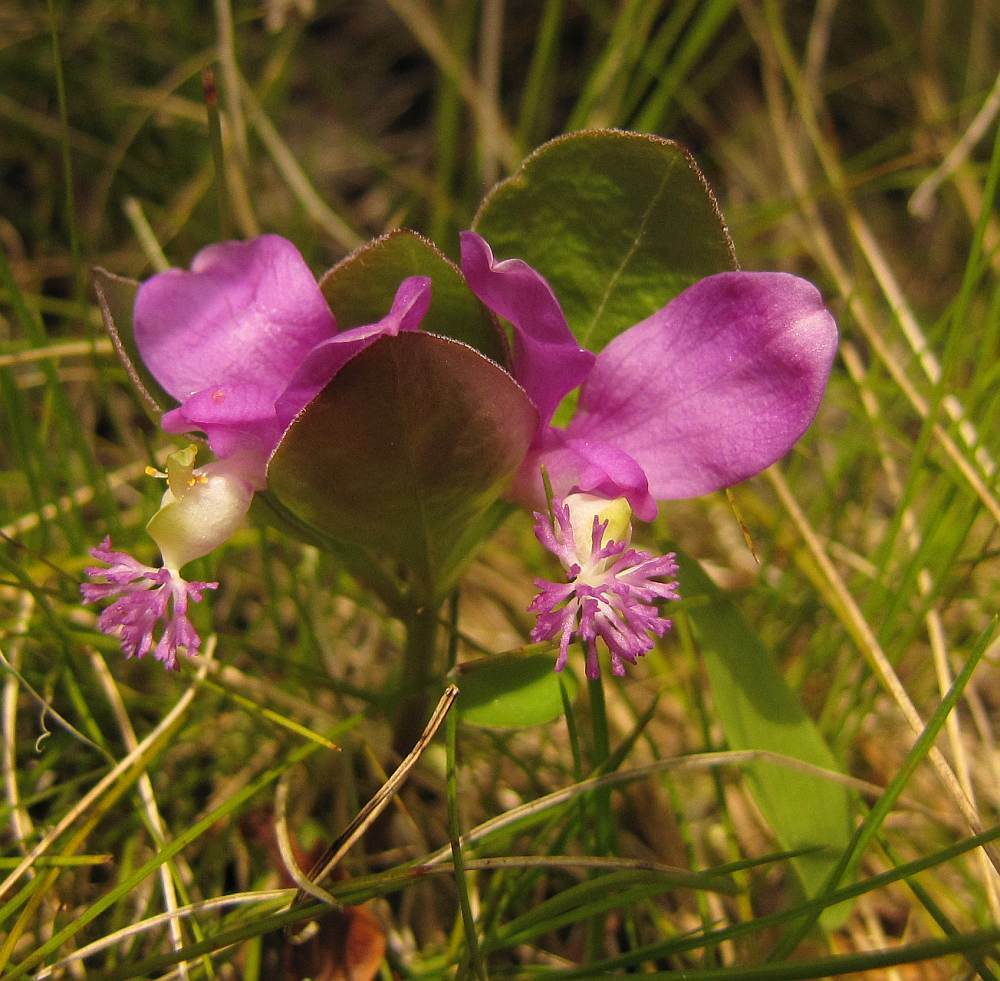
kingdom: Plantae
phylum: Tracheophyta
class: Magnoliopsida
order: Fabales
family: Polygalaceae
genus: Polygaloides
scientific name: Polygaloides paucifolia
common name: Bird-on-the-wing
